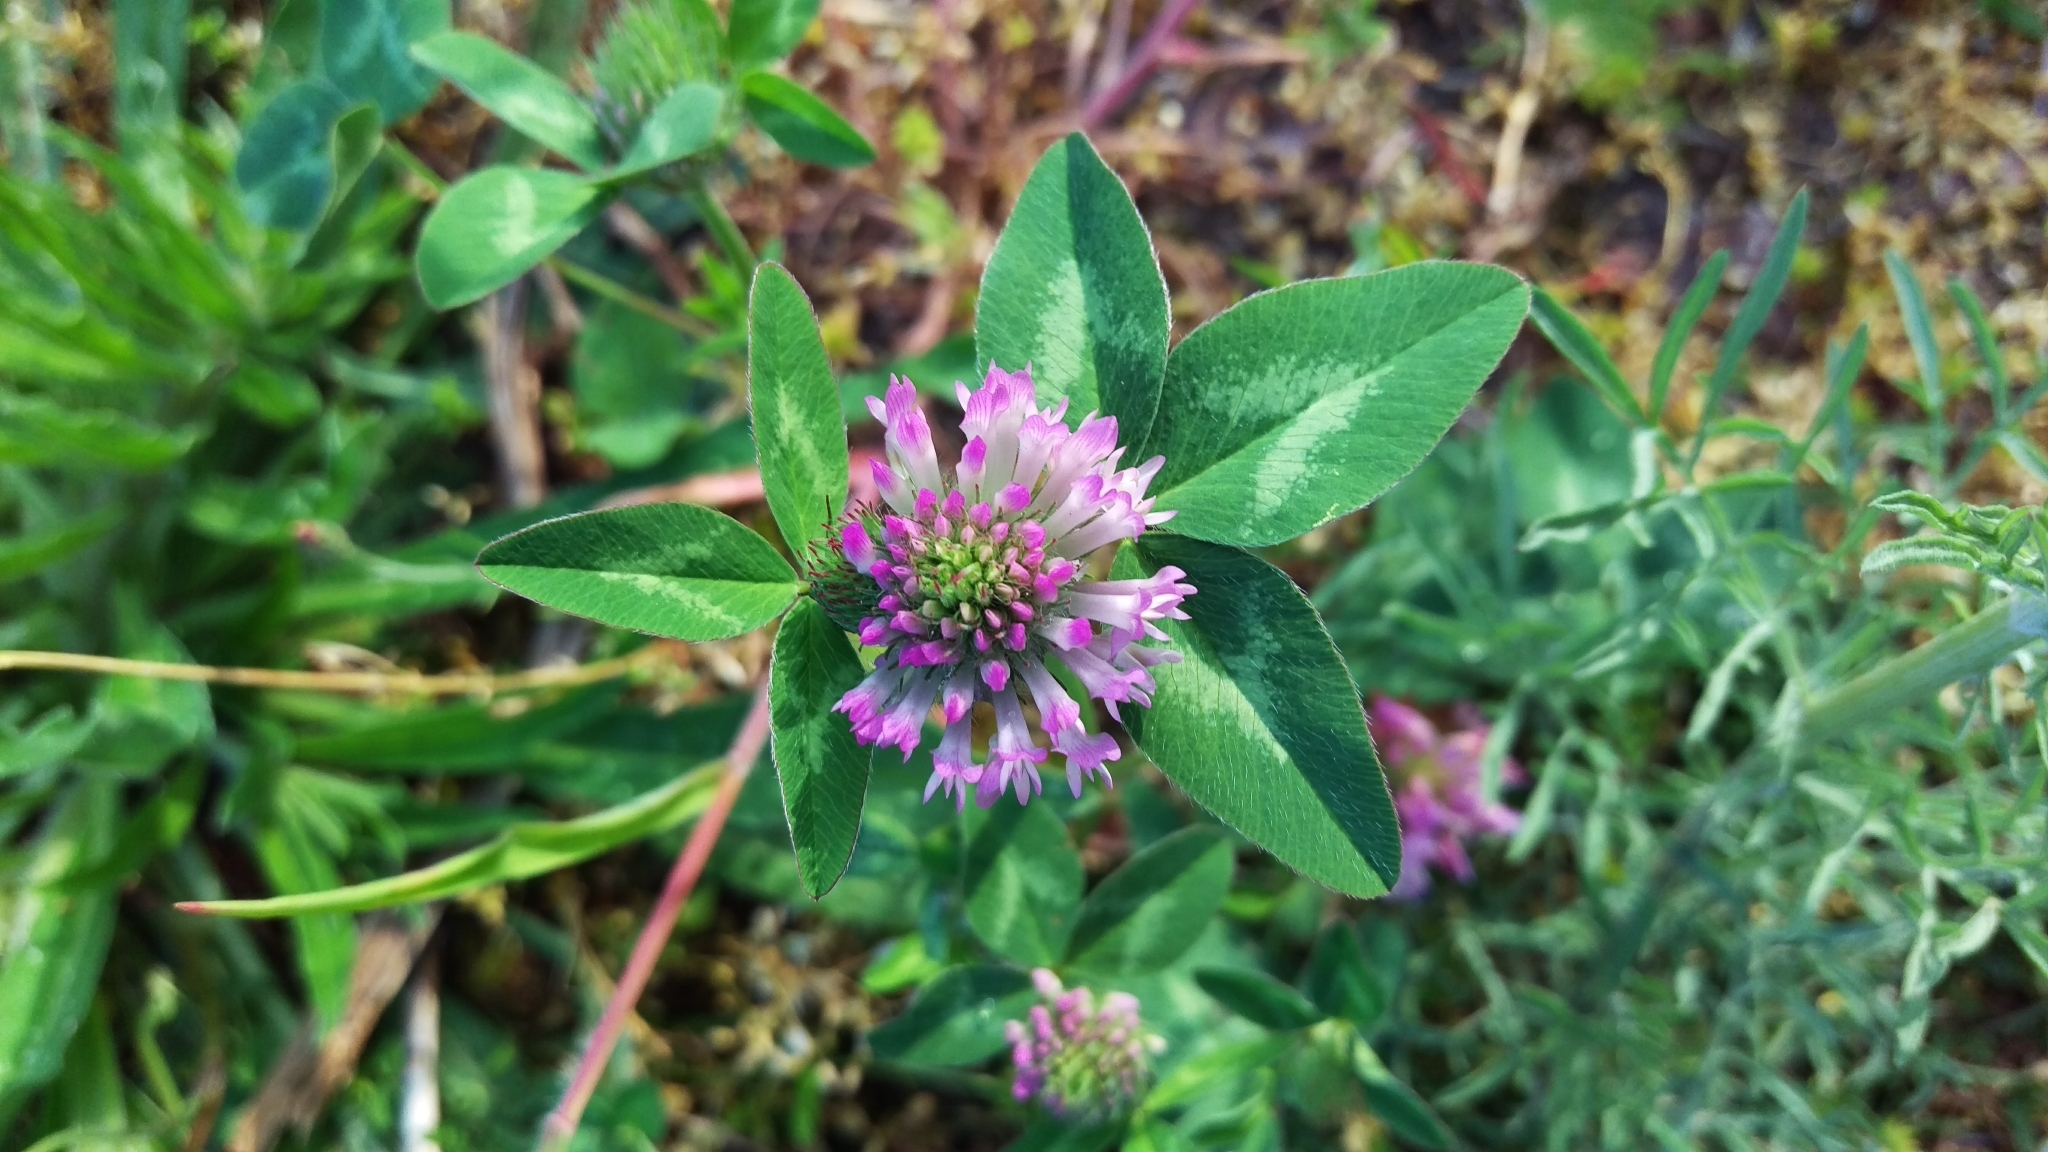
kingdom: Plantae
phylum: Tracheophyta
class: Magnoliopsida
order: Fabales
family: Fabaceae
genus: Trifolium
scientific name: Trifolium pratense
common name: Red clover
